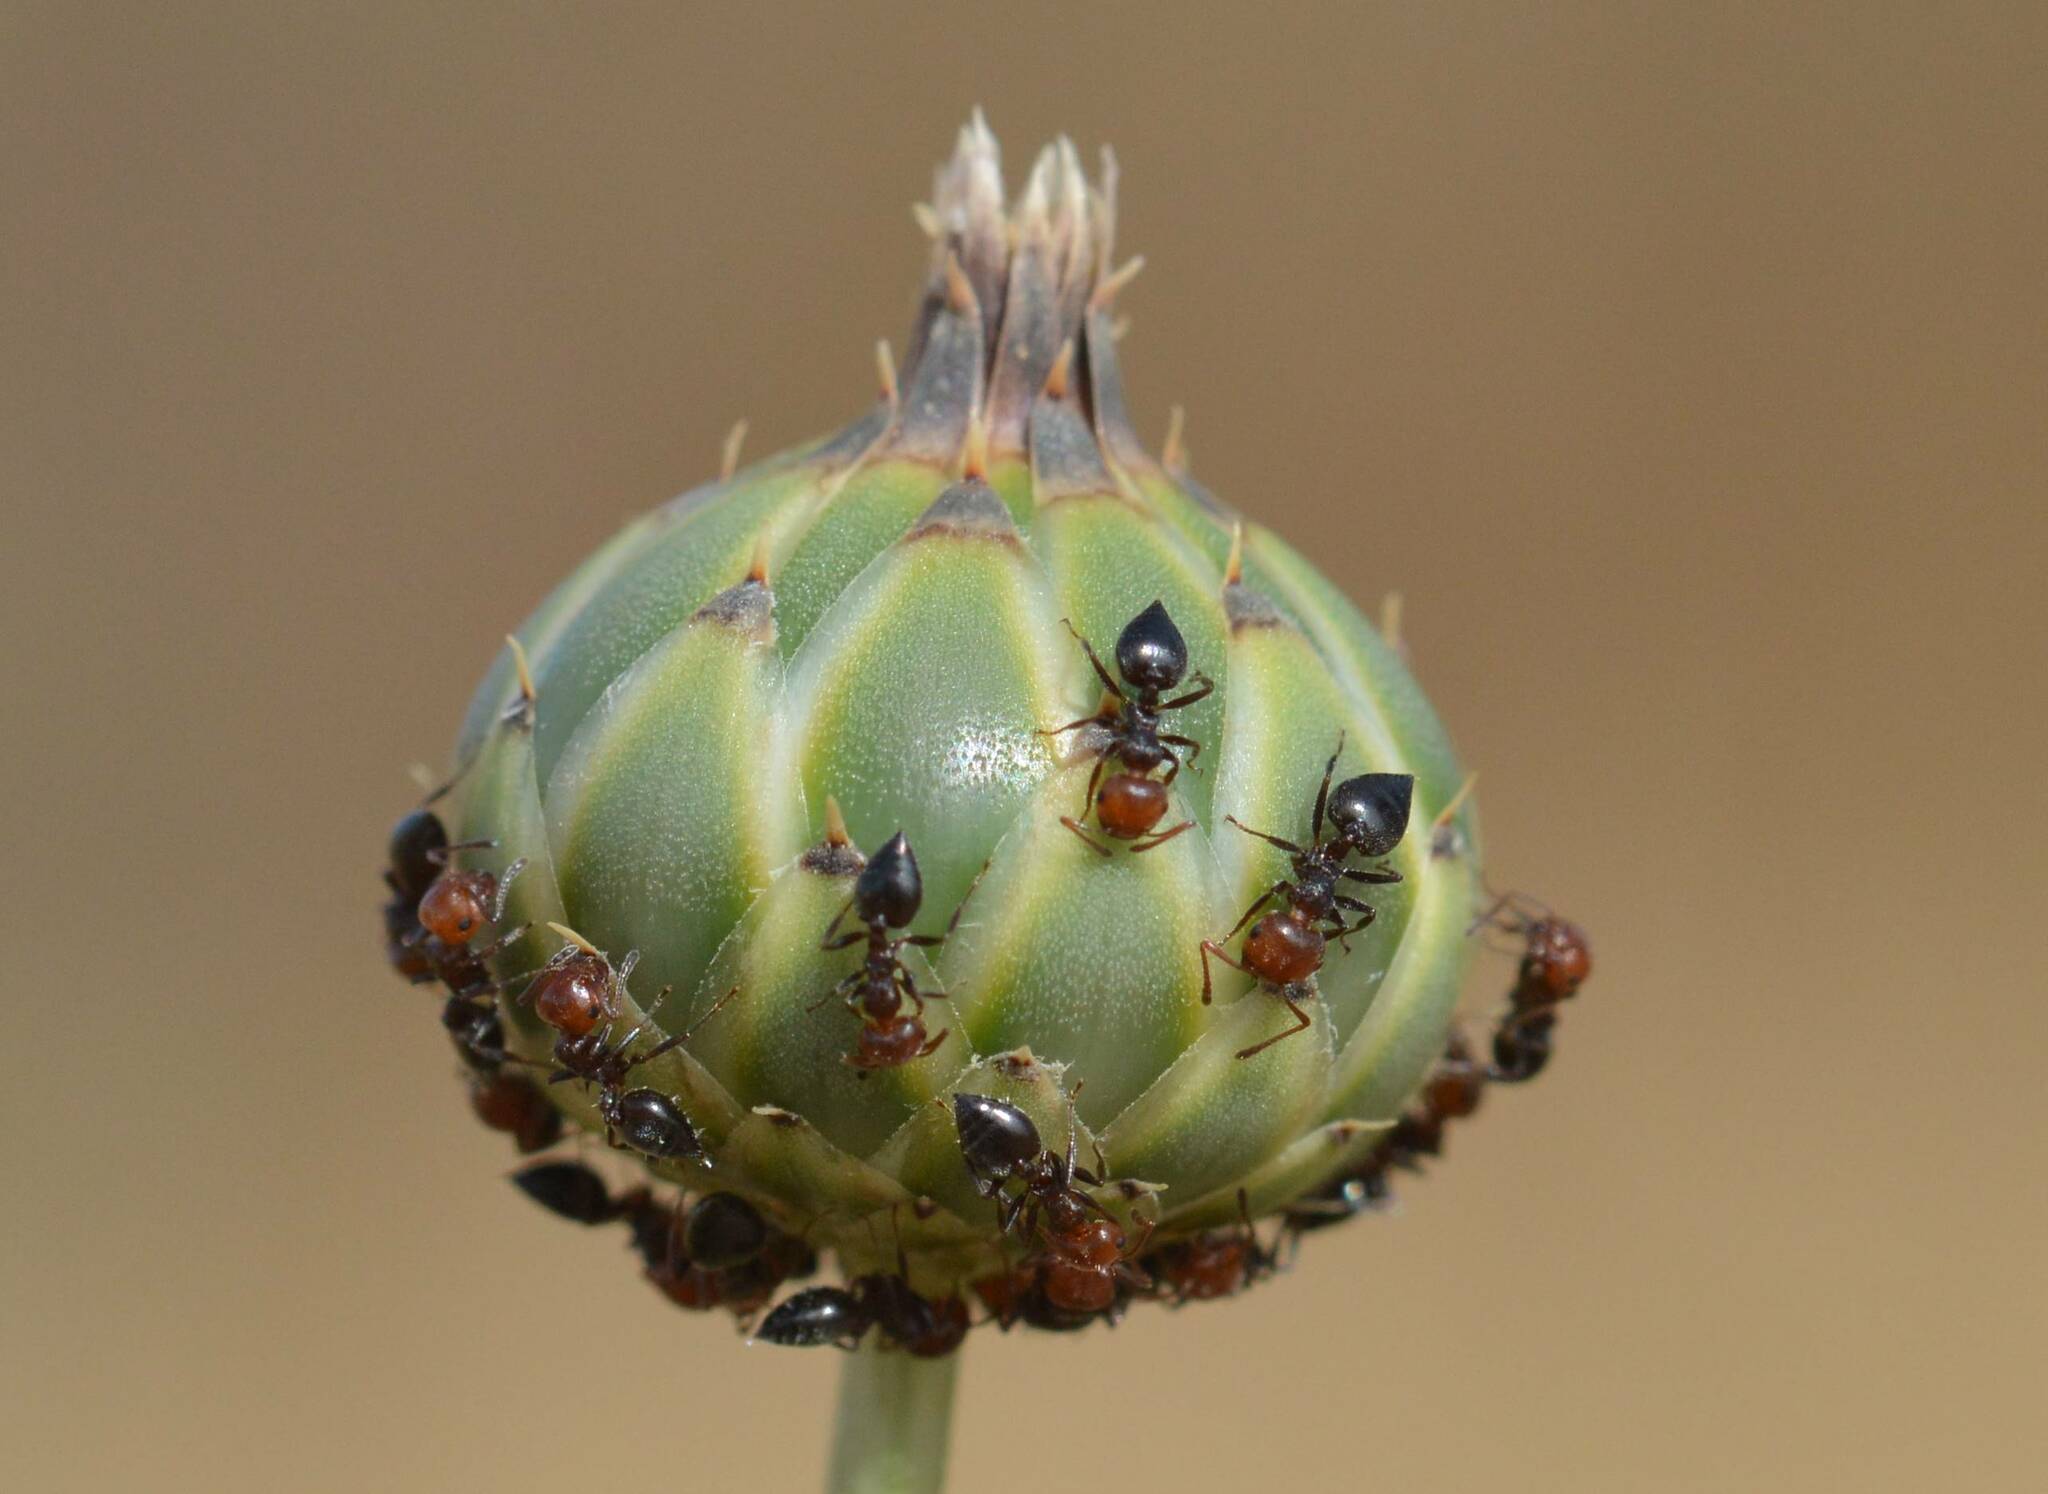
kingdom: Animalia
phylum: Arthropoda
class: Insecta
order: Hymenoptera
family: Formicidae
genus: Crematogaster
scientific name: Crematogaster scutellaris
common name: Fourmi du liège
